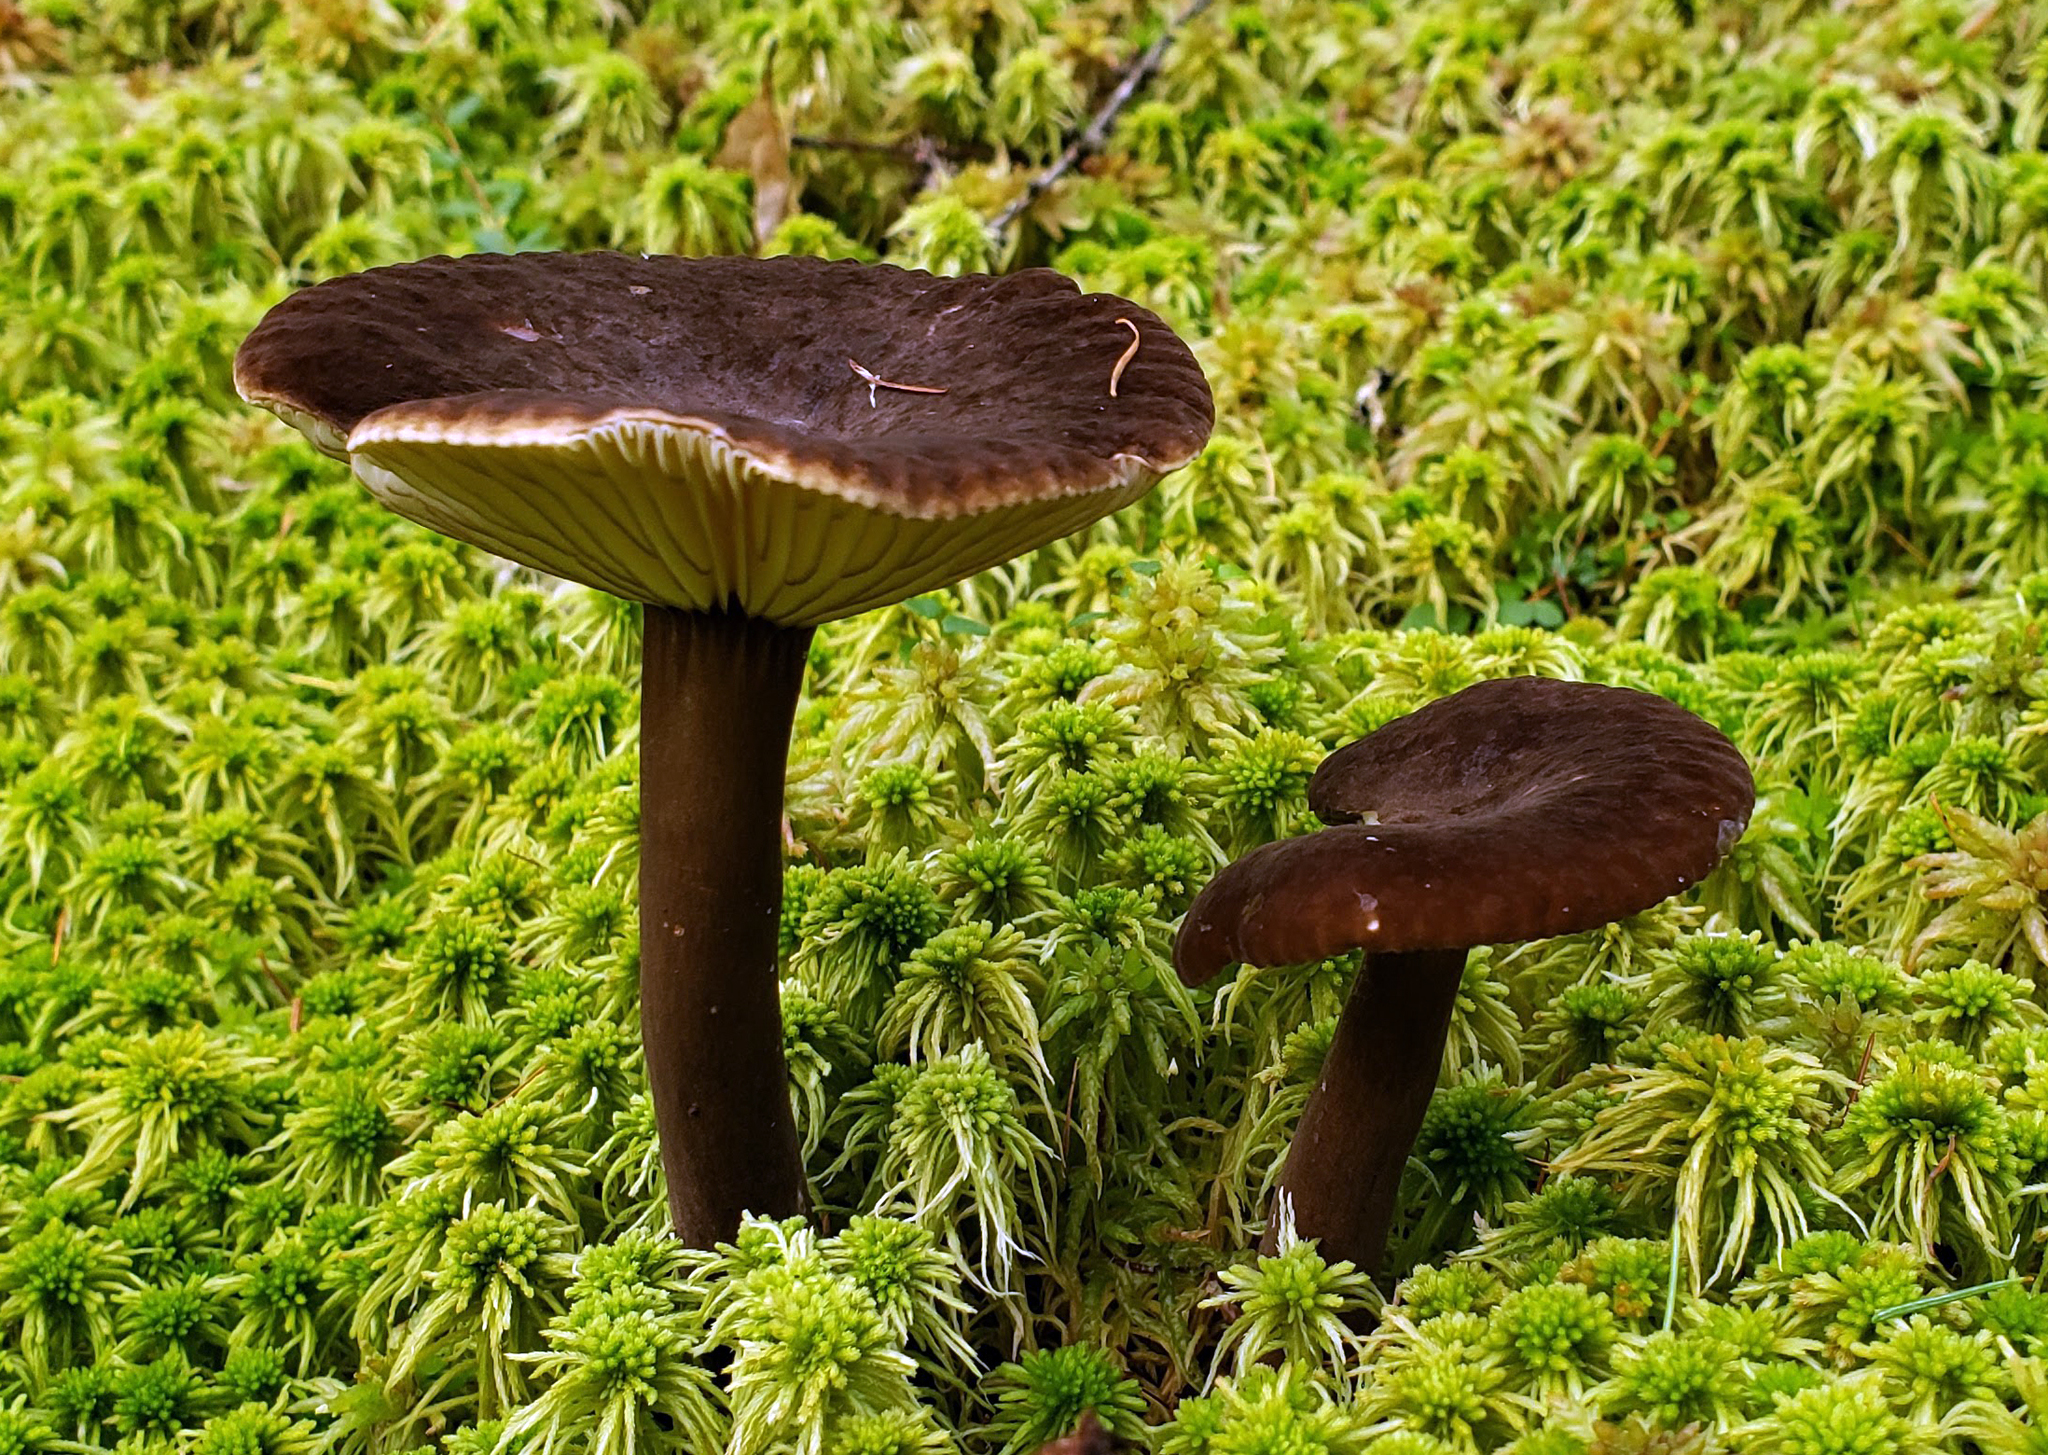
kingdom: Fungi
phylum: Basidiomycota
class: Agaricomycetes
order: Russulales
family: Russulaceae
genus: Lactarius
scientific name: Lactarius lignyotus
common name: Velvet milkcap
